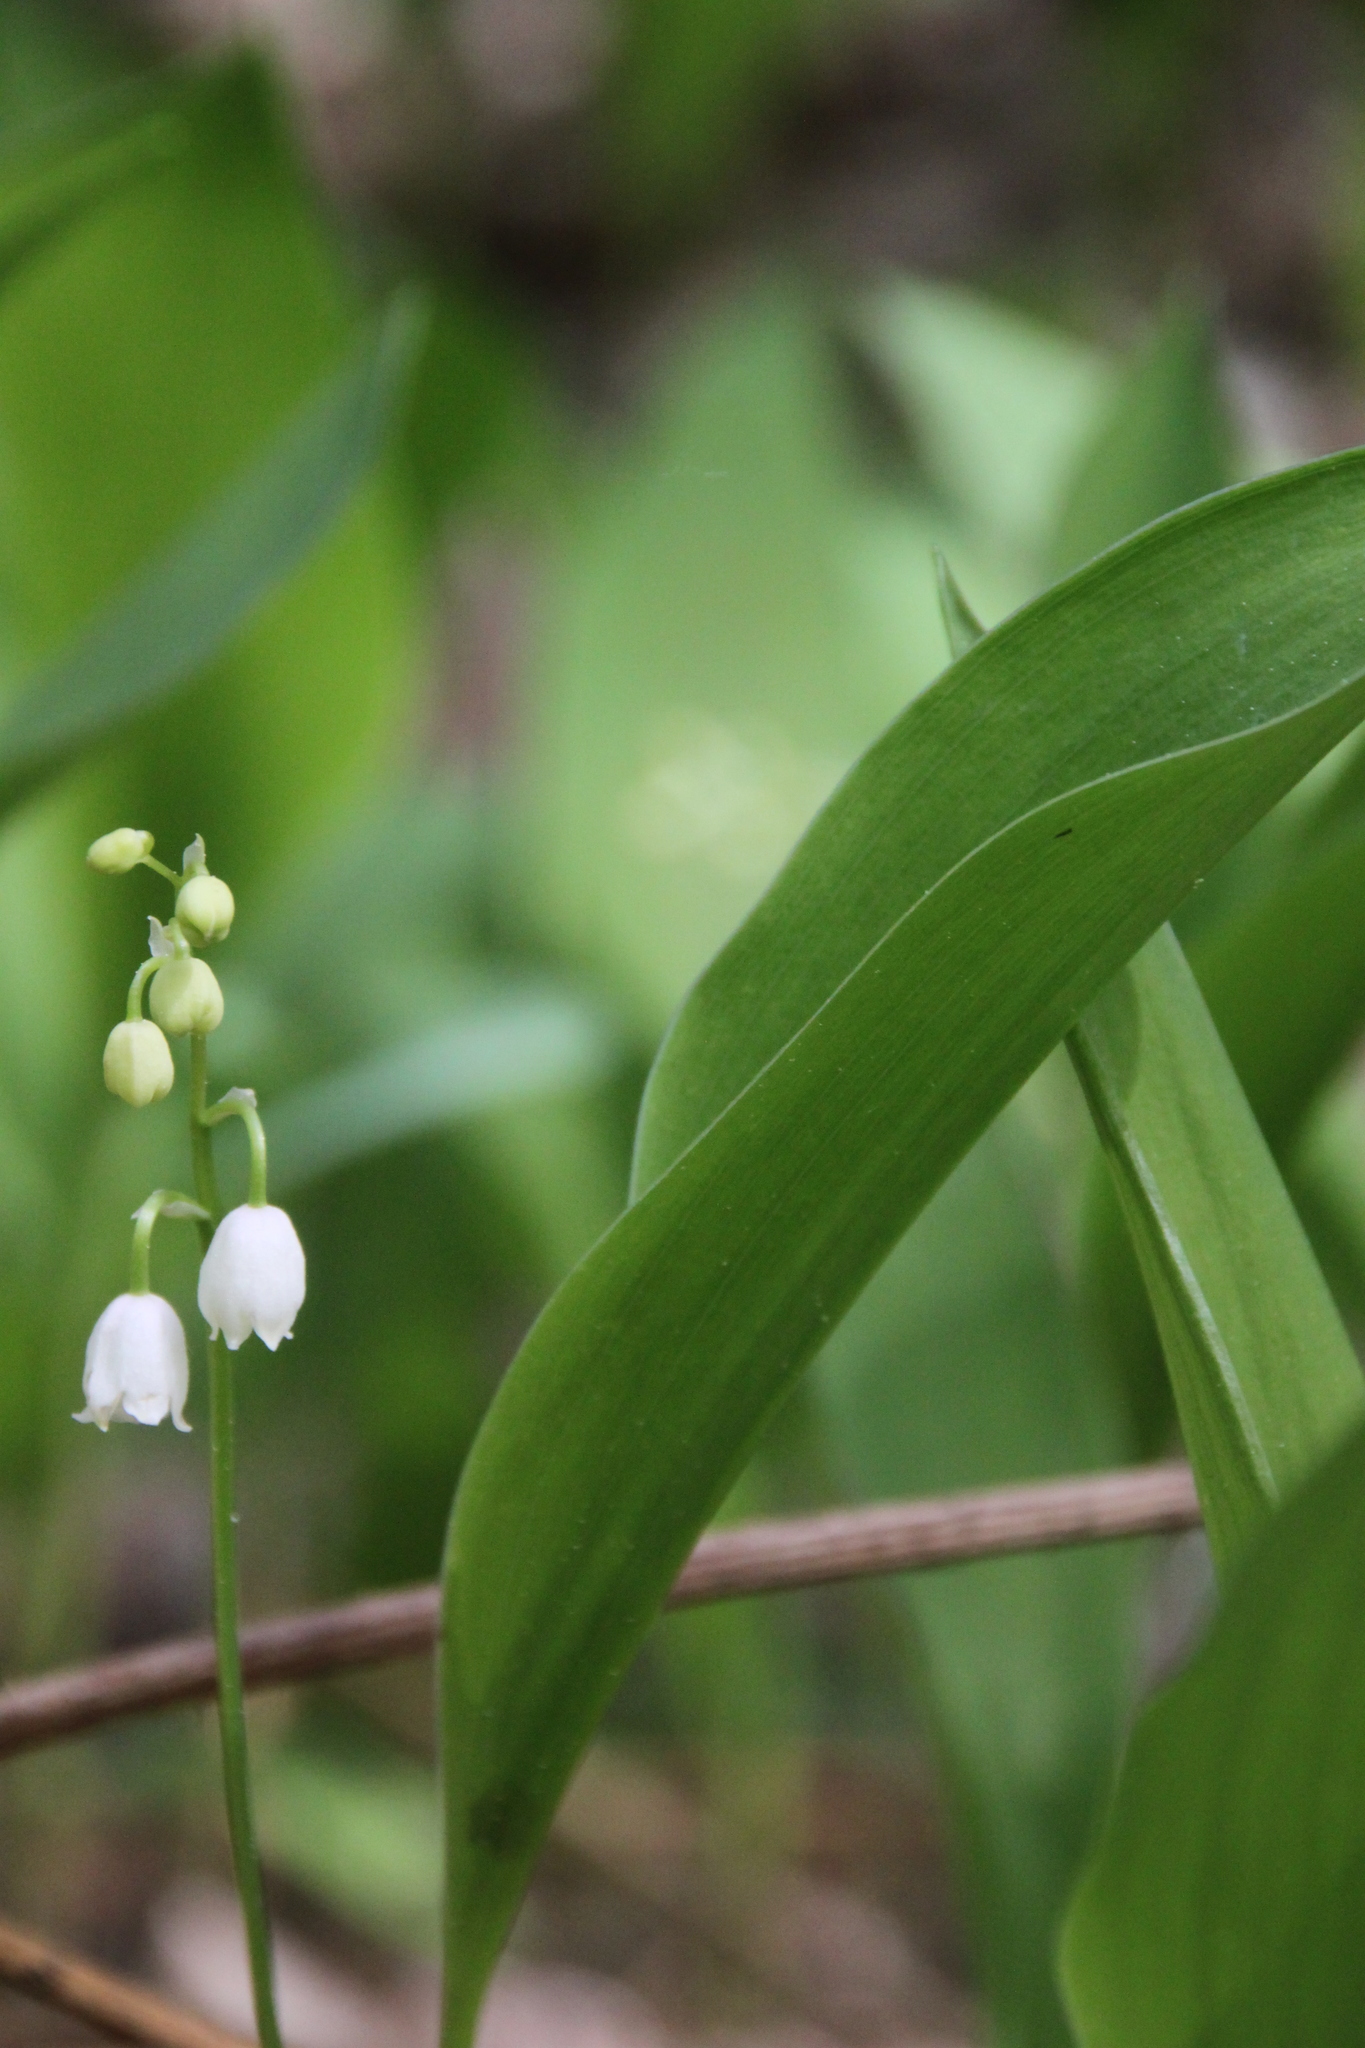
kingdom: Plantae
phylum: Tracheophyta
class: Liliopsida
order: Asparagales
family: Asparagaceae
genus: Convallaria
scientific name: Convallaria majalis
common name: Lily-of-the-valley
